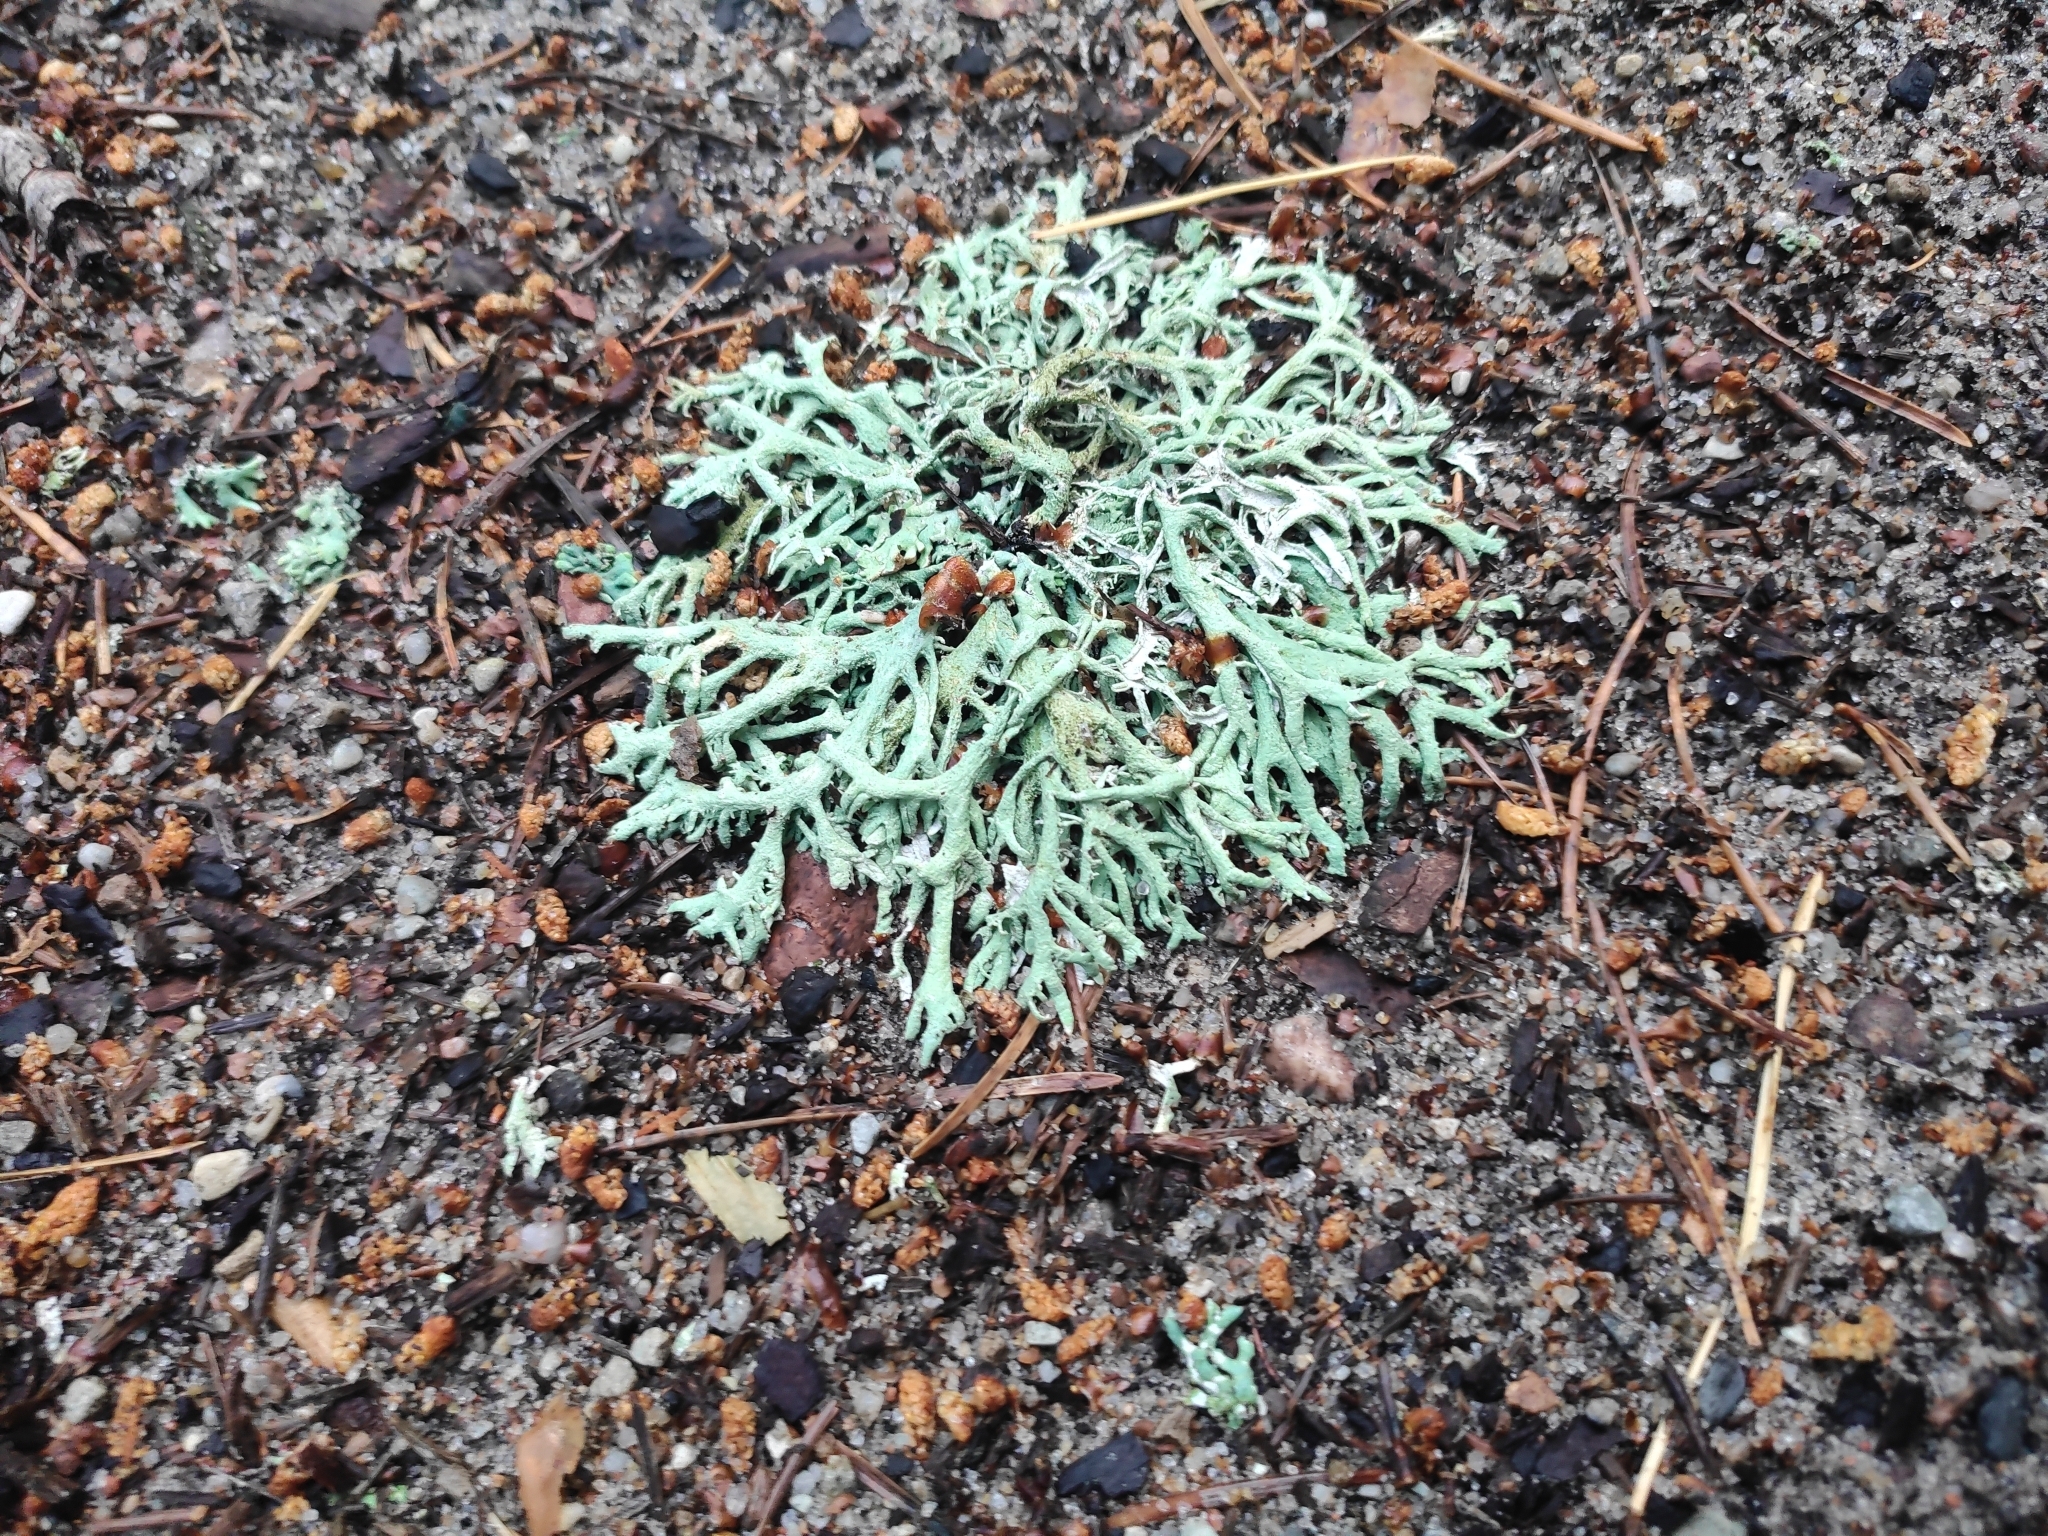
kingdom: Fungi
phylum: Ascomycota
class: Lecanoromycetes
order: Lecanorales
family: Parmeliaceae
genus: Evernia
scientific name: Evernia prunastri
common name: Oak moss
